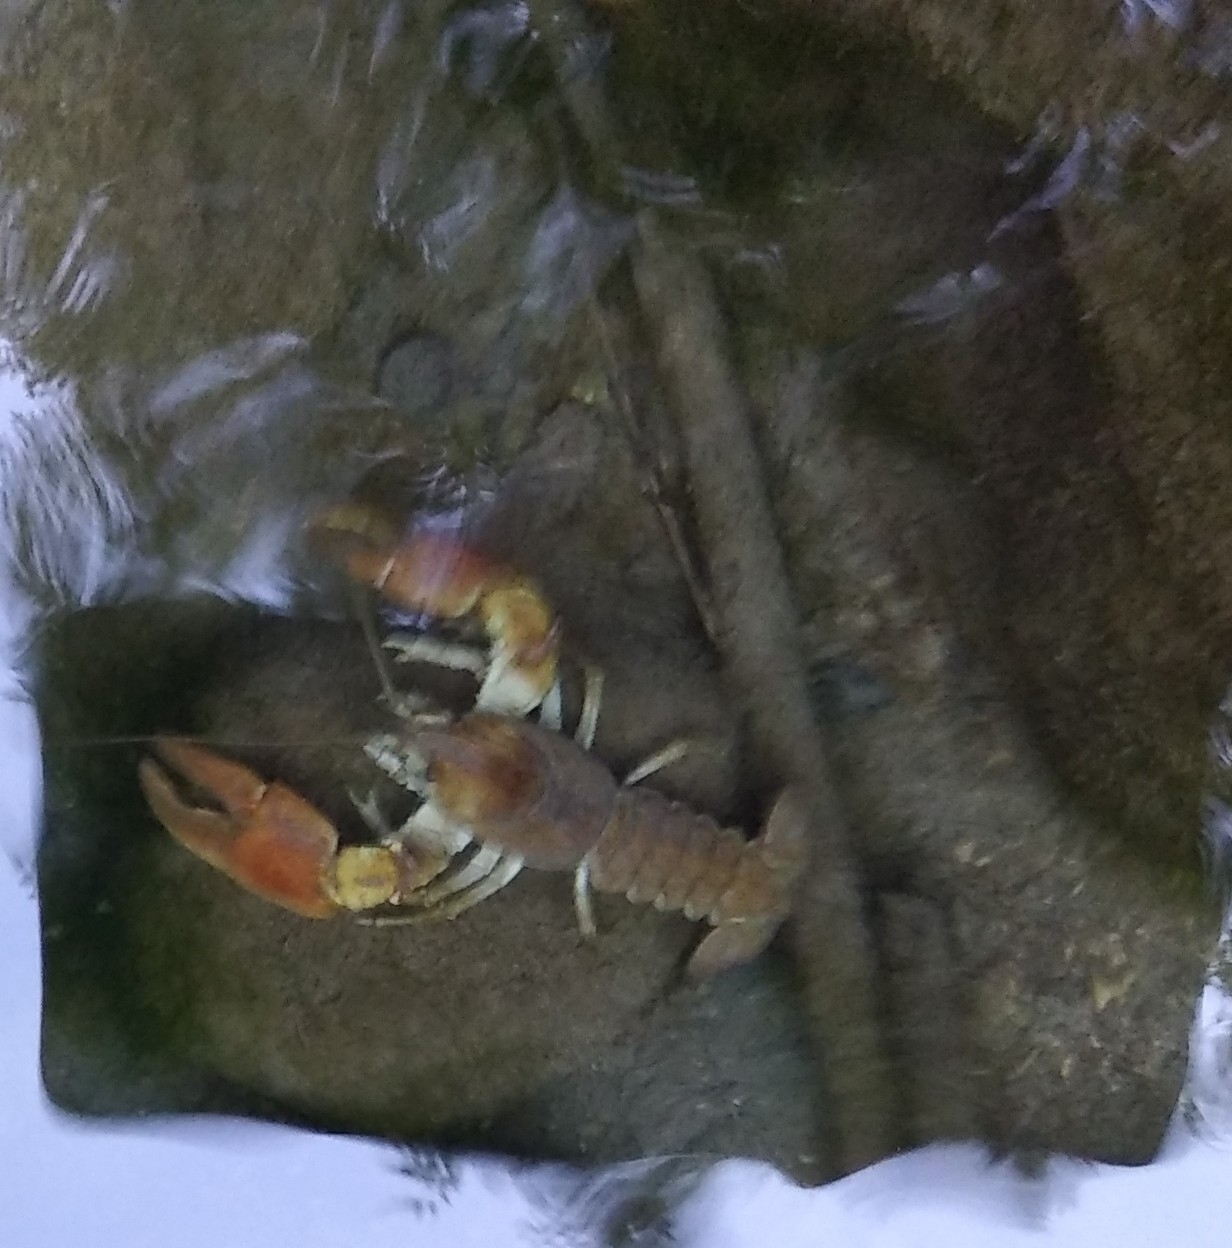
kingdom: Animalia
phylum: Arthropoda
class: Malacostraca
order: Decapoda
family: Astacidae
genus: Austropotamobius
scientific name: Austropotamobius pallipes
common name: White-clawed crayfish
